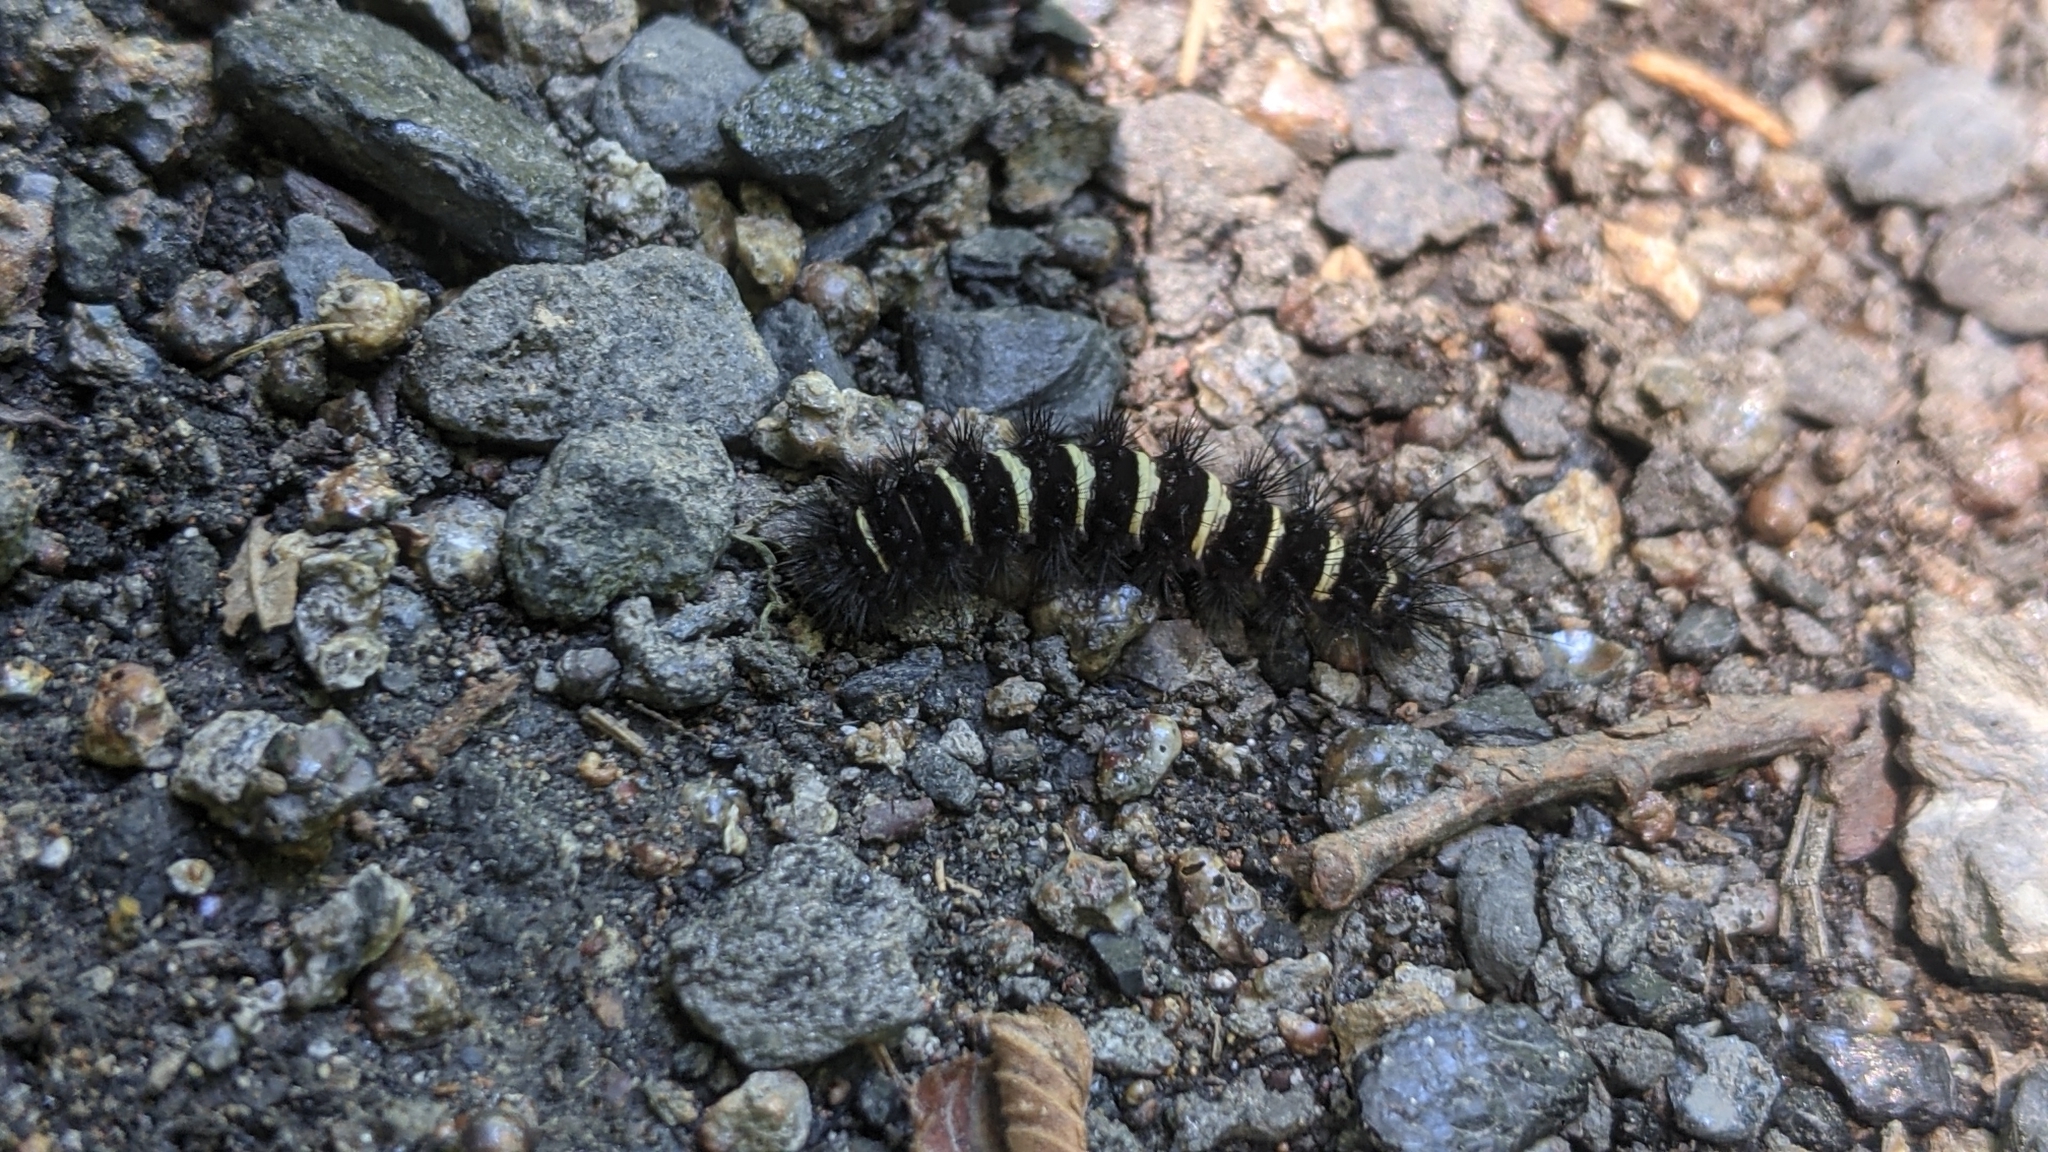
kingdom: Animalia
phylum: Arthropoda
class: Insecta
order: Lepidoptera
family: Erebidae
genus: Spilosoma
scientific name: Spilosoma congrua
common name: Agreeable tiger moth
